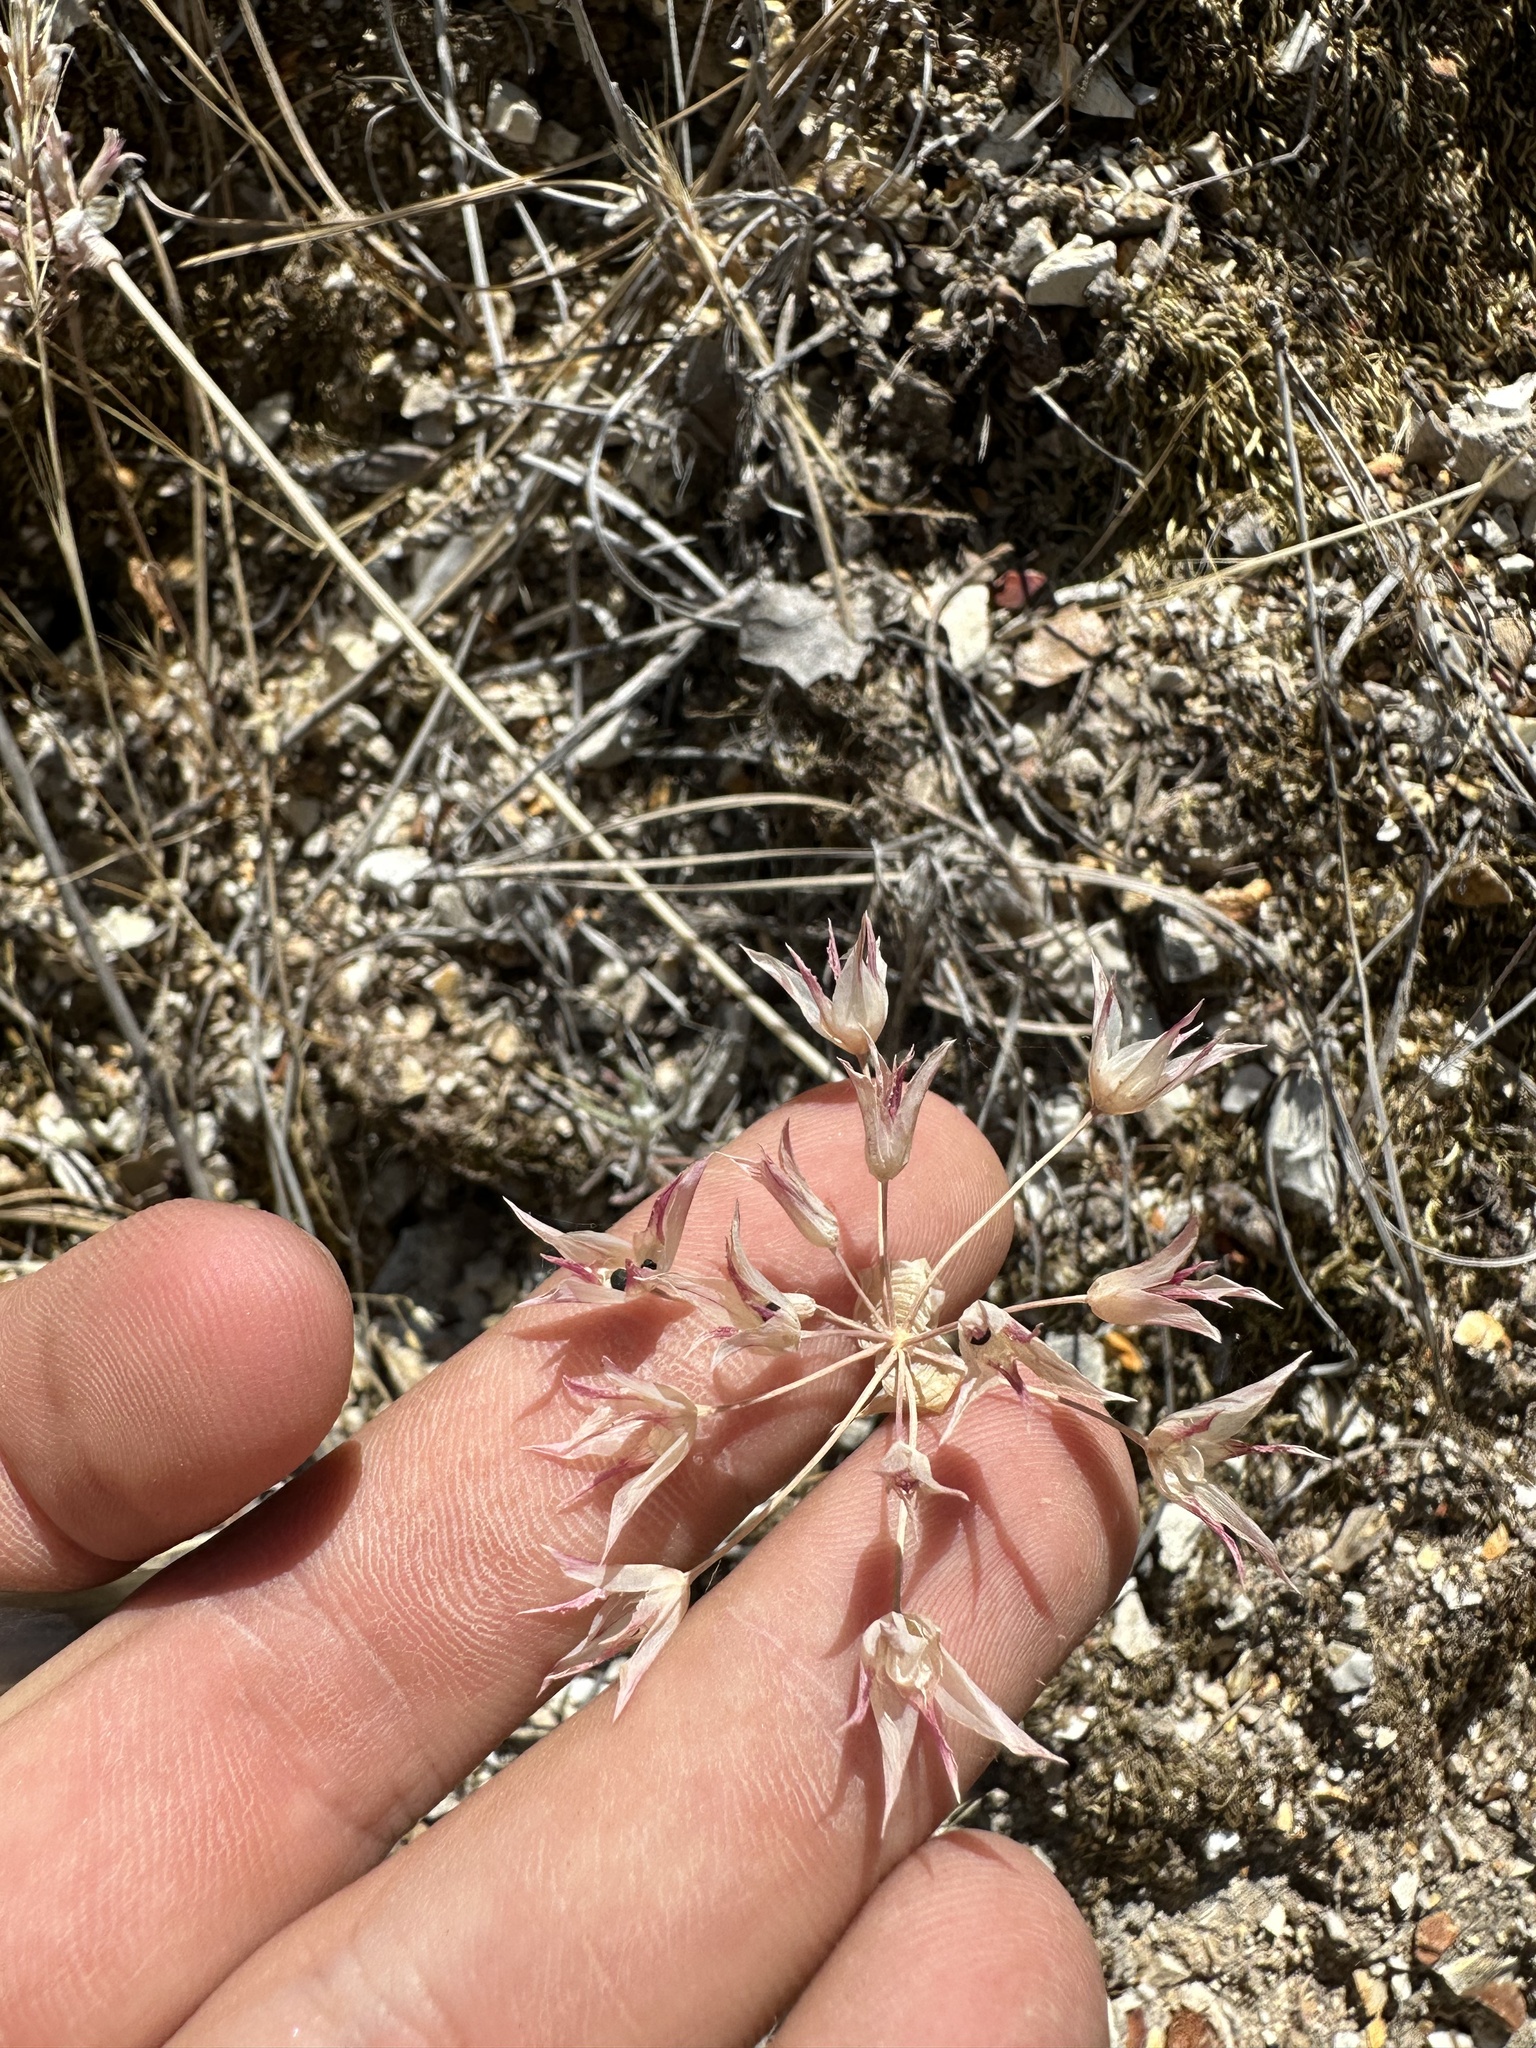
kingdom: Plantae
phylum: Tracheophyta
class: Liliopsida
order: Asparagales
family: Amaryllidaceae
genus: Allium
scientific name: Allium crispum
